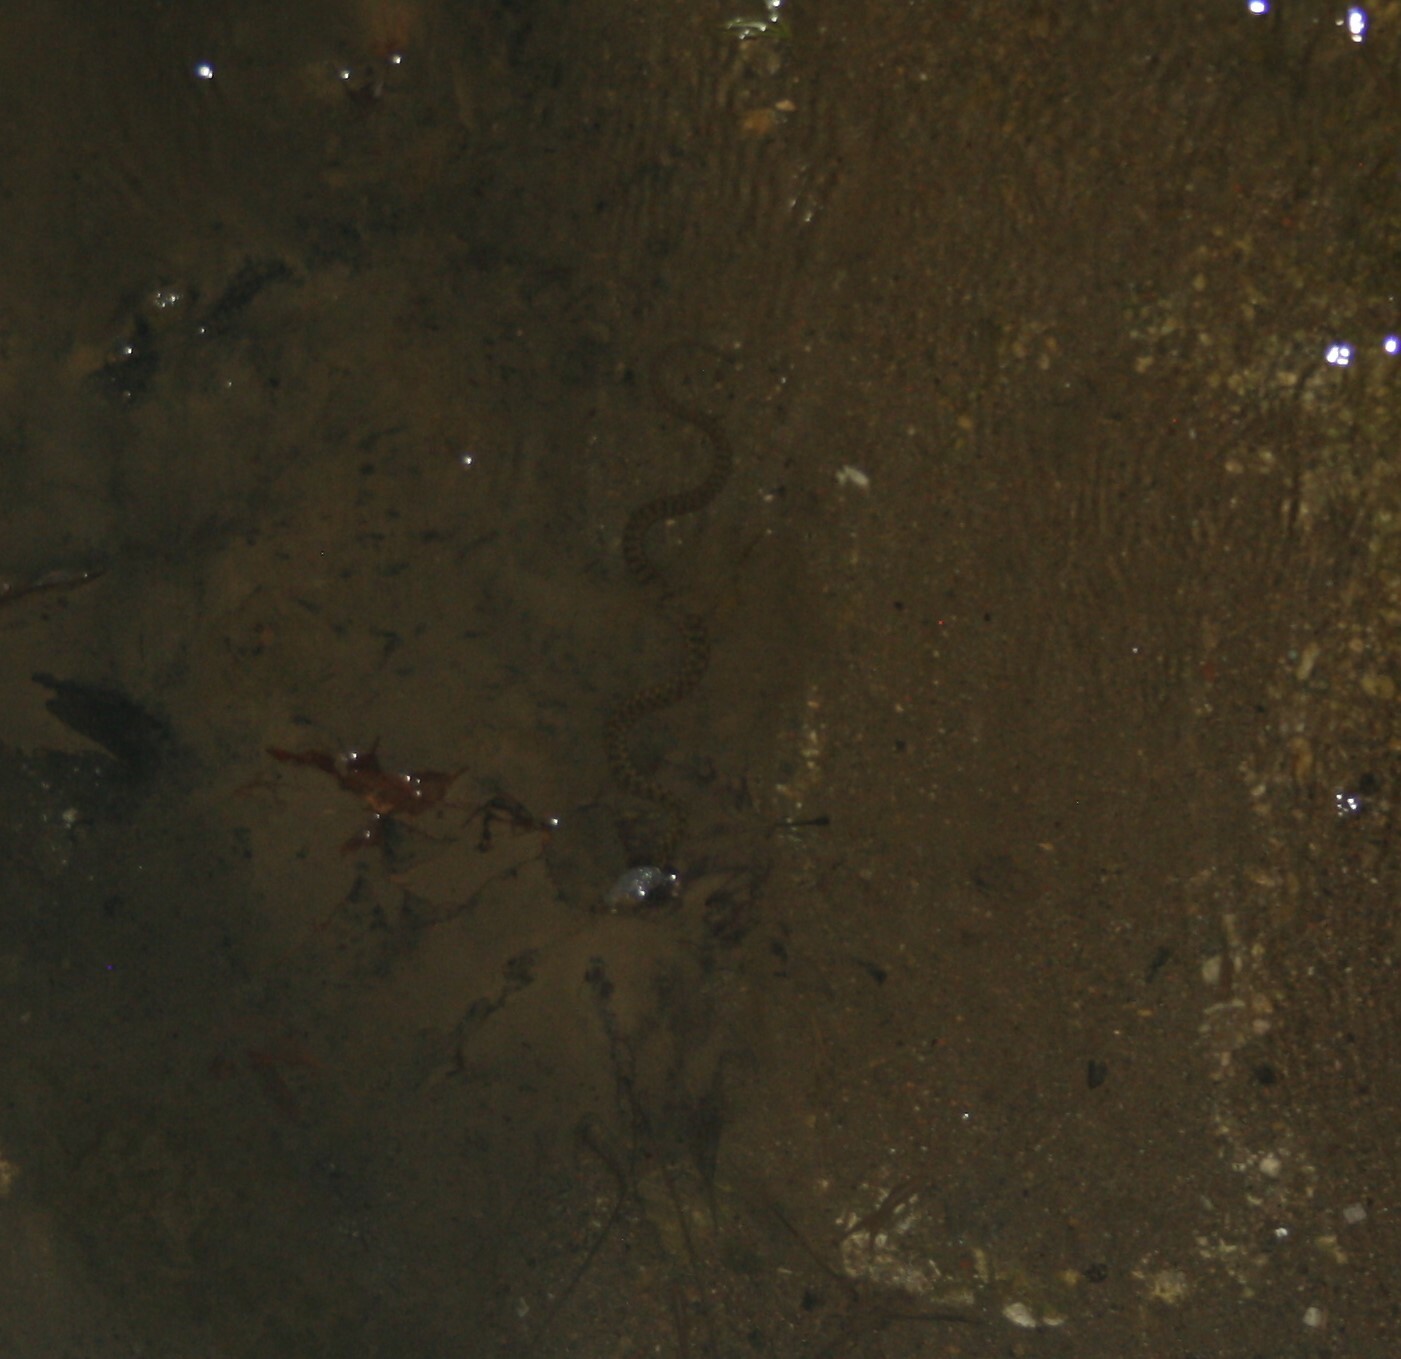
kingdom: Animalia
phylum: Chordata
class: Squamata
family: Colubridae
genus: Natrix
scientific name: Natrix tessellata
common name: Dice snake
